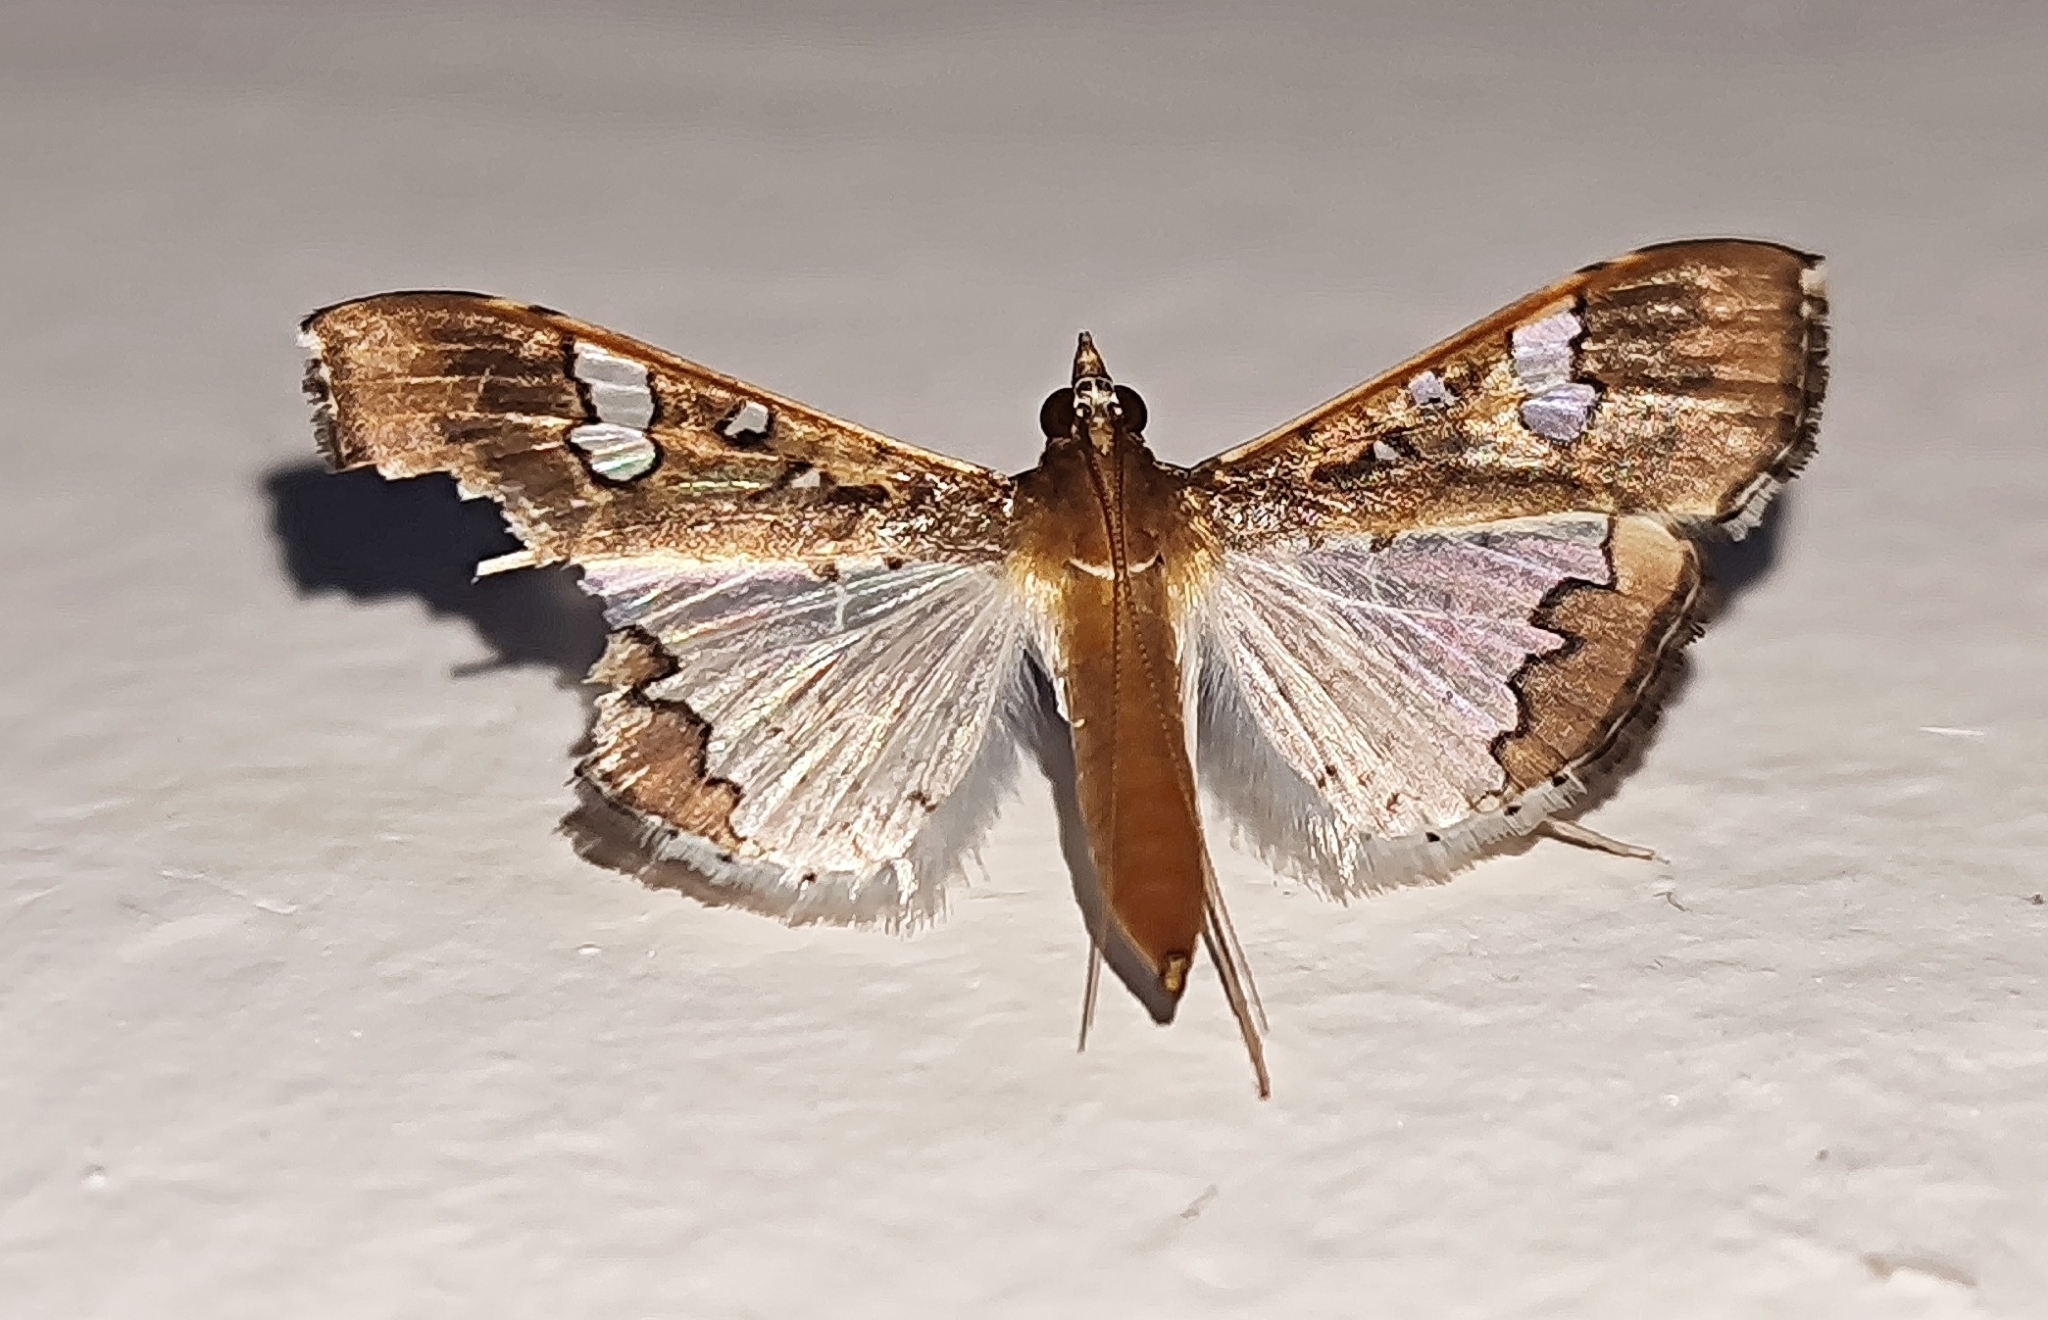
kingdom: Animalia
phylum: Arthropoda
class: Insecta
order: Lepidoptera
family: Crambidae
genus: Maruca
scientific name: Maruca vitrata
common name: Maruca pod borer
